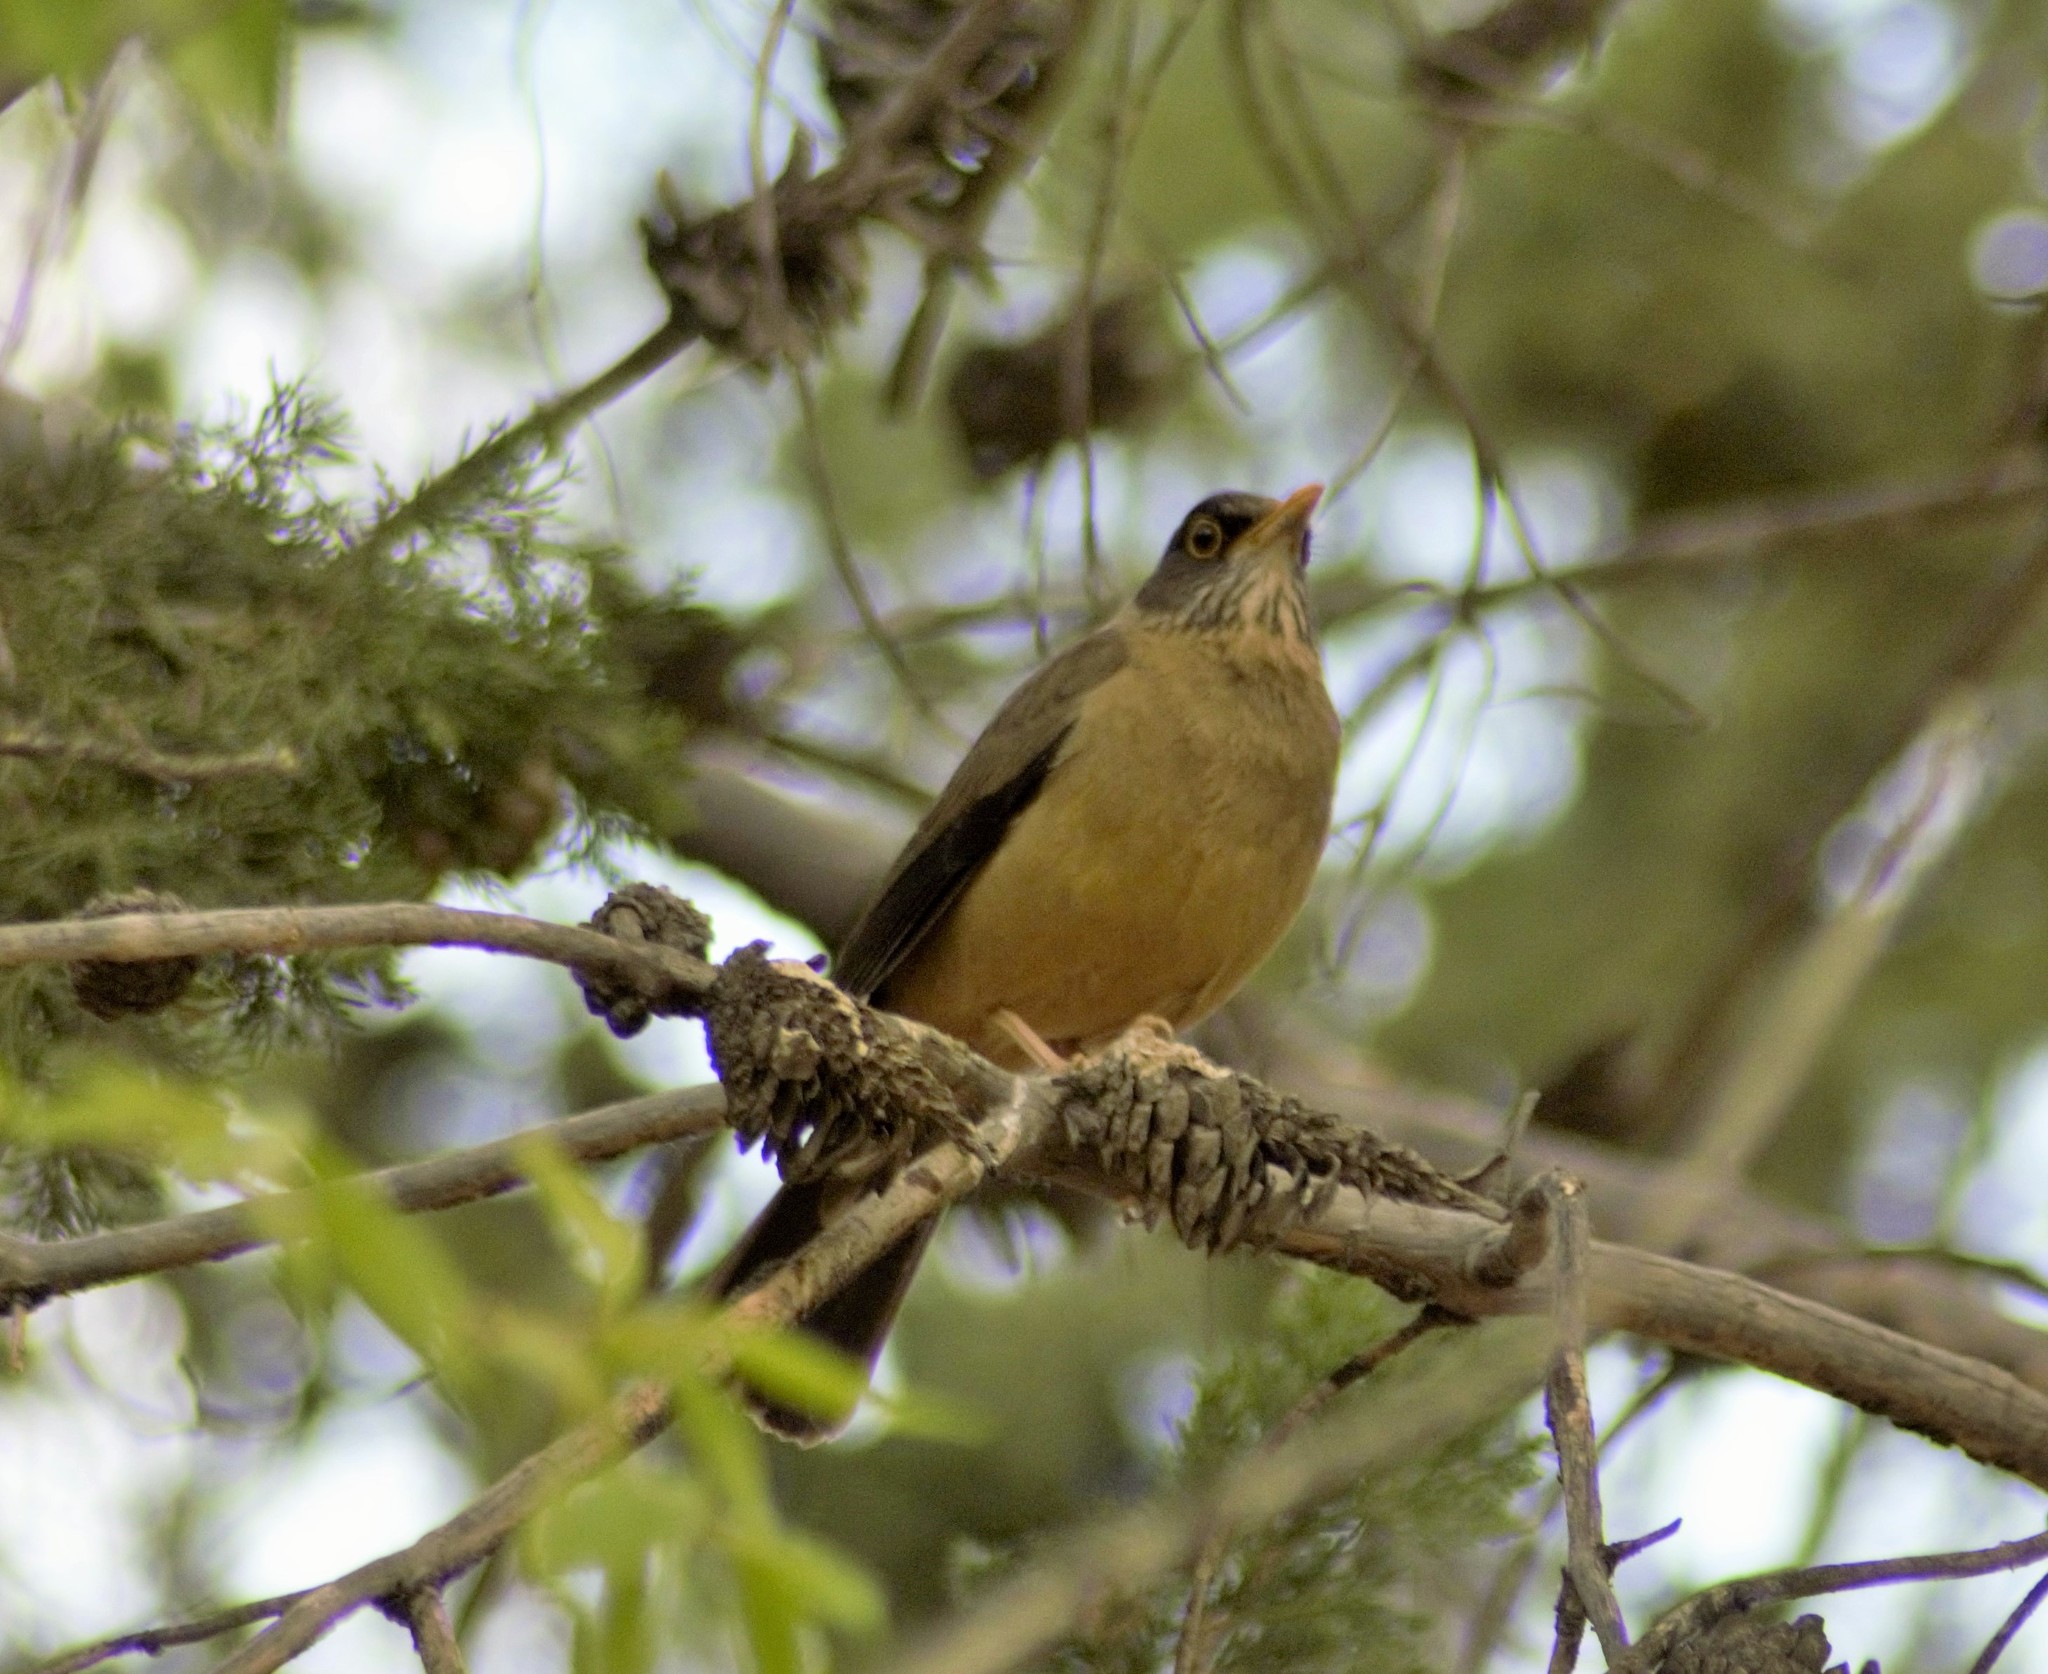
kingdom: Animalia
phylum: Chordata
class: Aves
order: Passeriformes
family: Turdidae
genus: Turdus
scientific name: Turdus falcklandii
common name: Austral thrush
